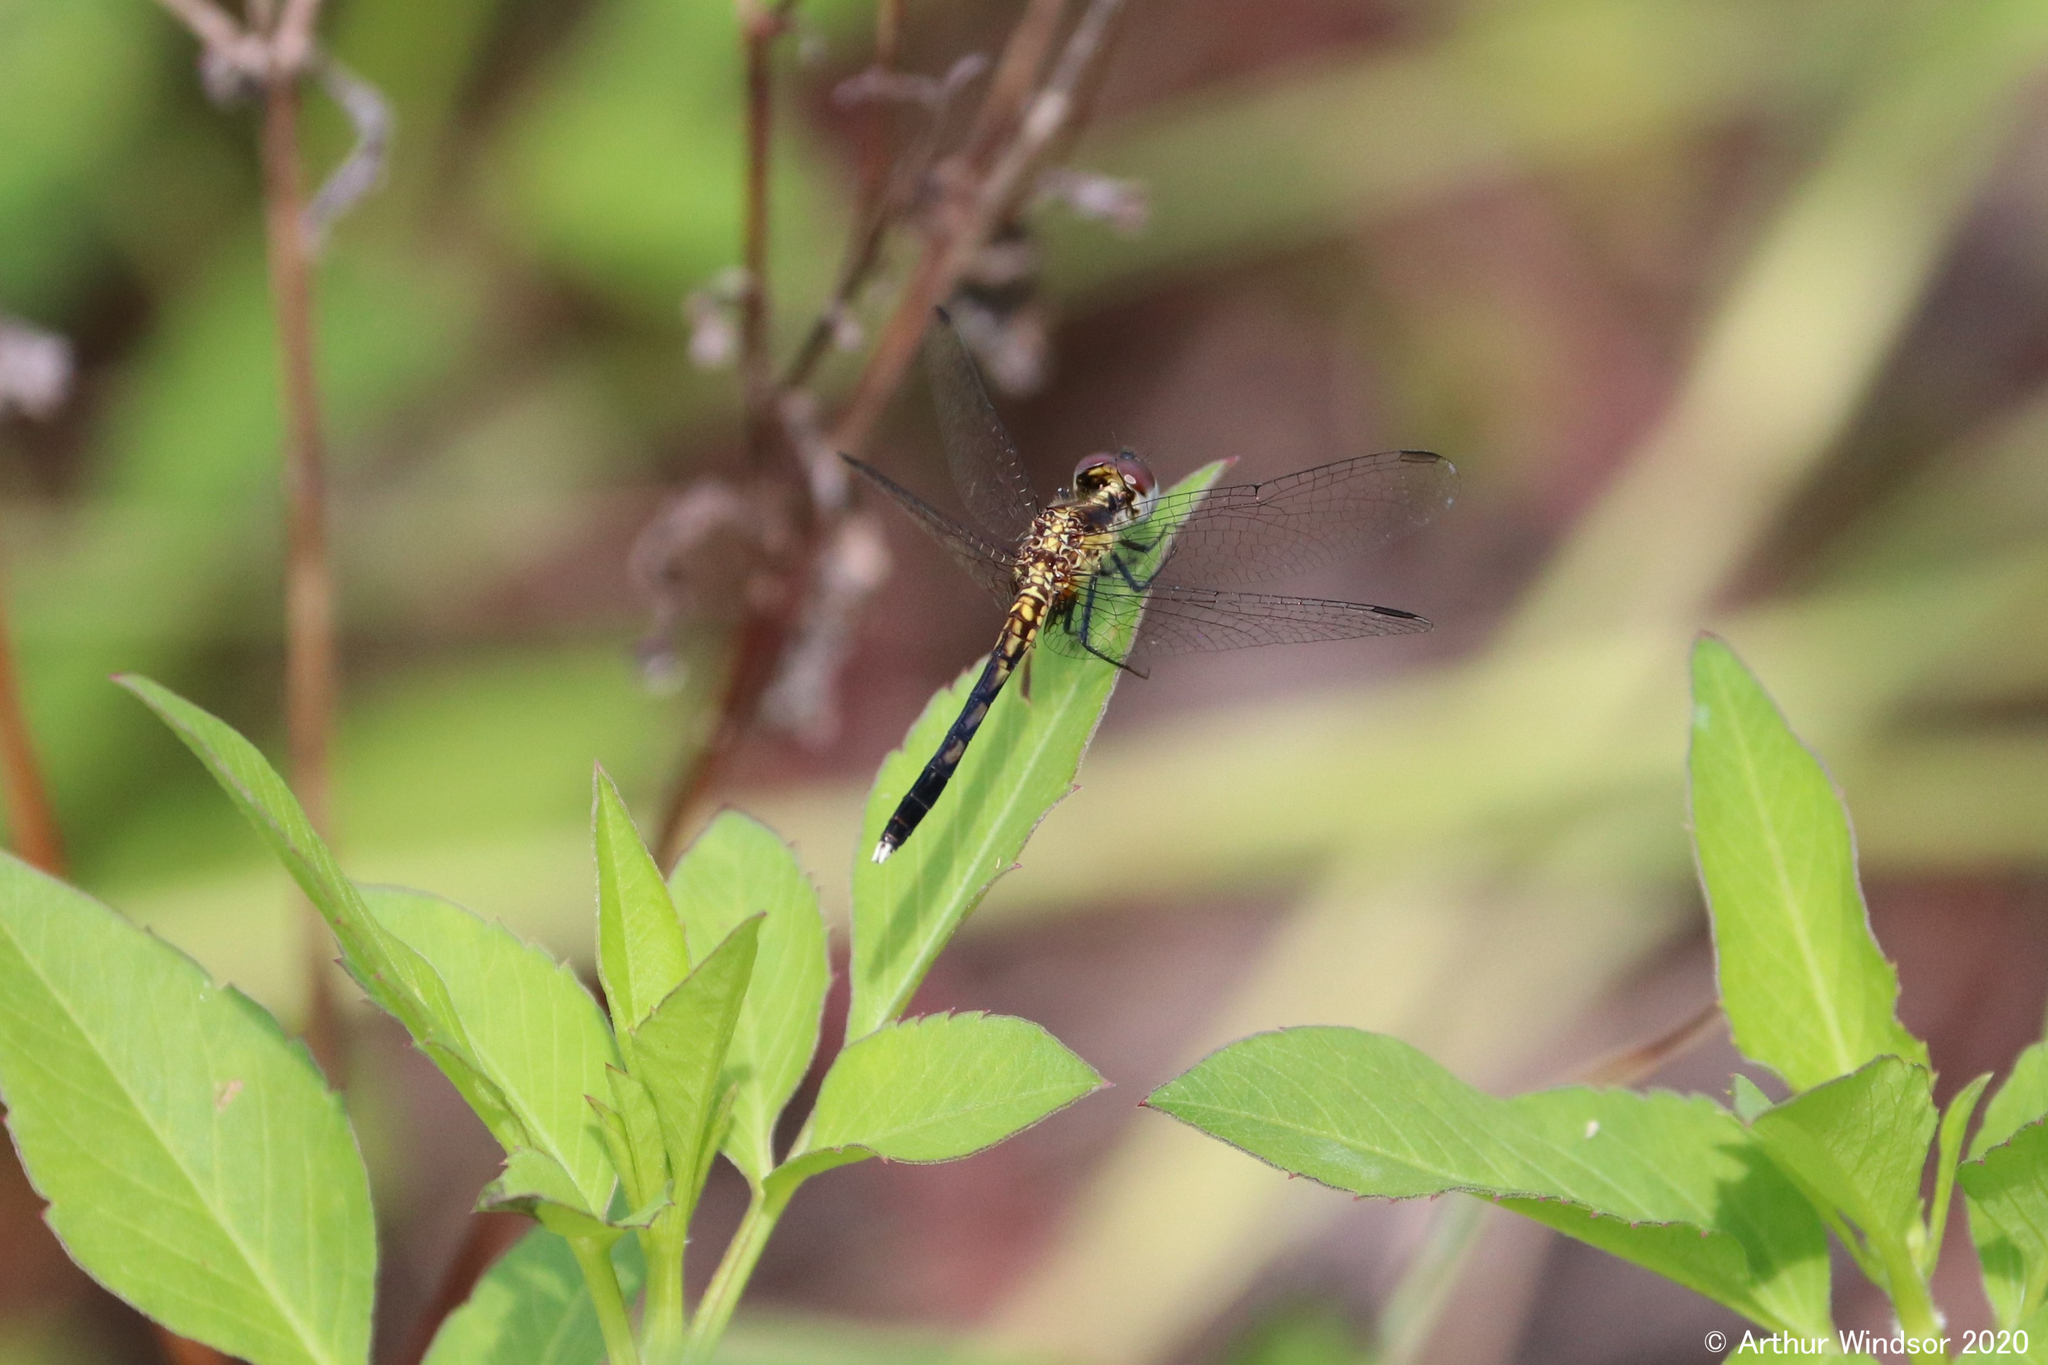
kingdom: Animalia
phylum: Arthropoda
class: Insecta
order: Odonata
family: Libellulidae
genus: Erythrodiplax
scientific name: Erythrodiplax minuscula
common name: Little blue dragonlet
